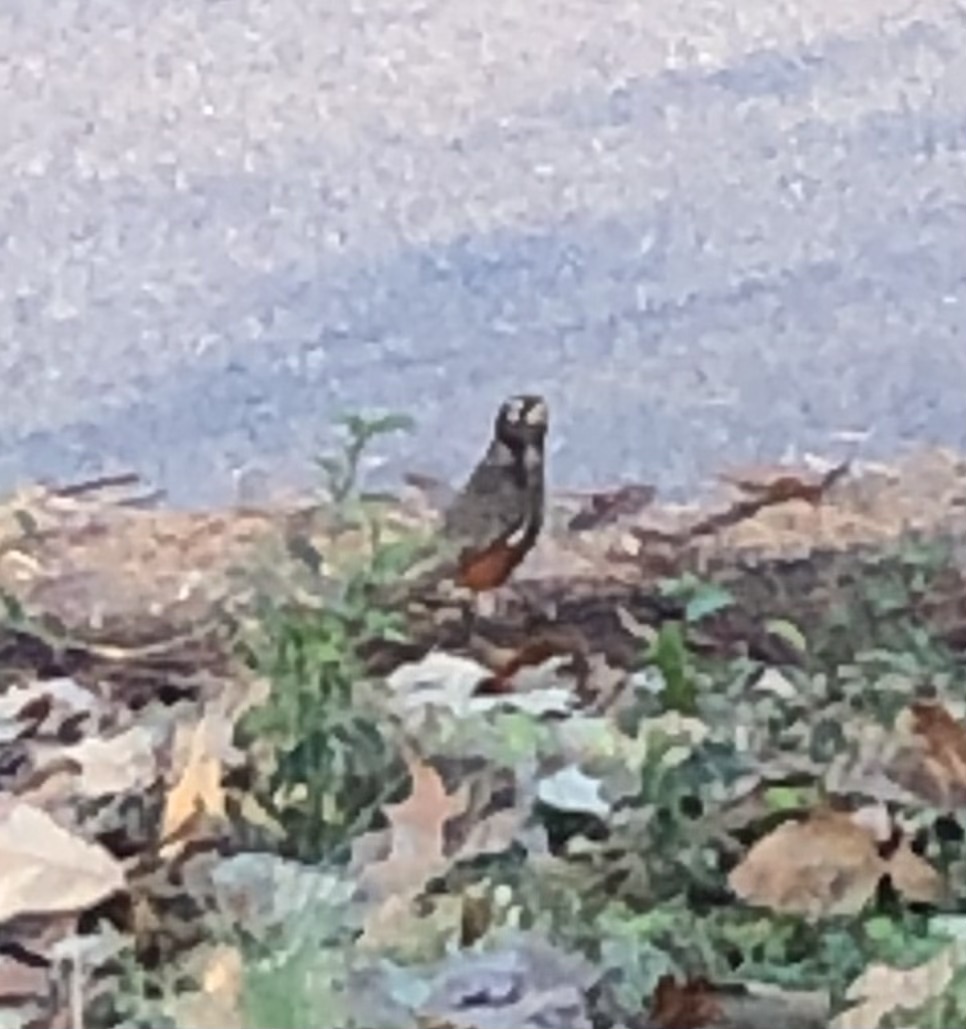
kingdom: Animalia
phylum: Chordata
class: Aves
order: Passeriformes
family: Turdidae
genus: Turdus
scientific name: Turdus migratorius
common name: American robin
